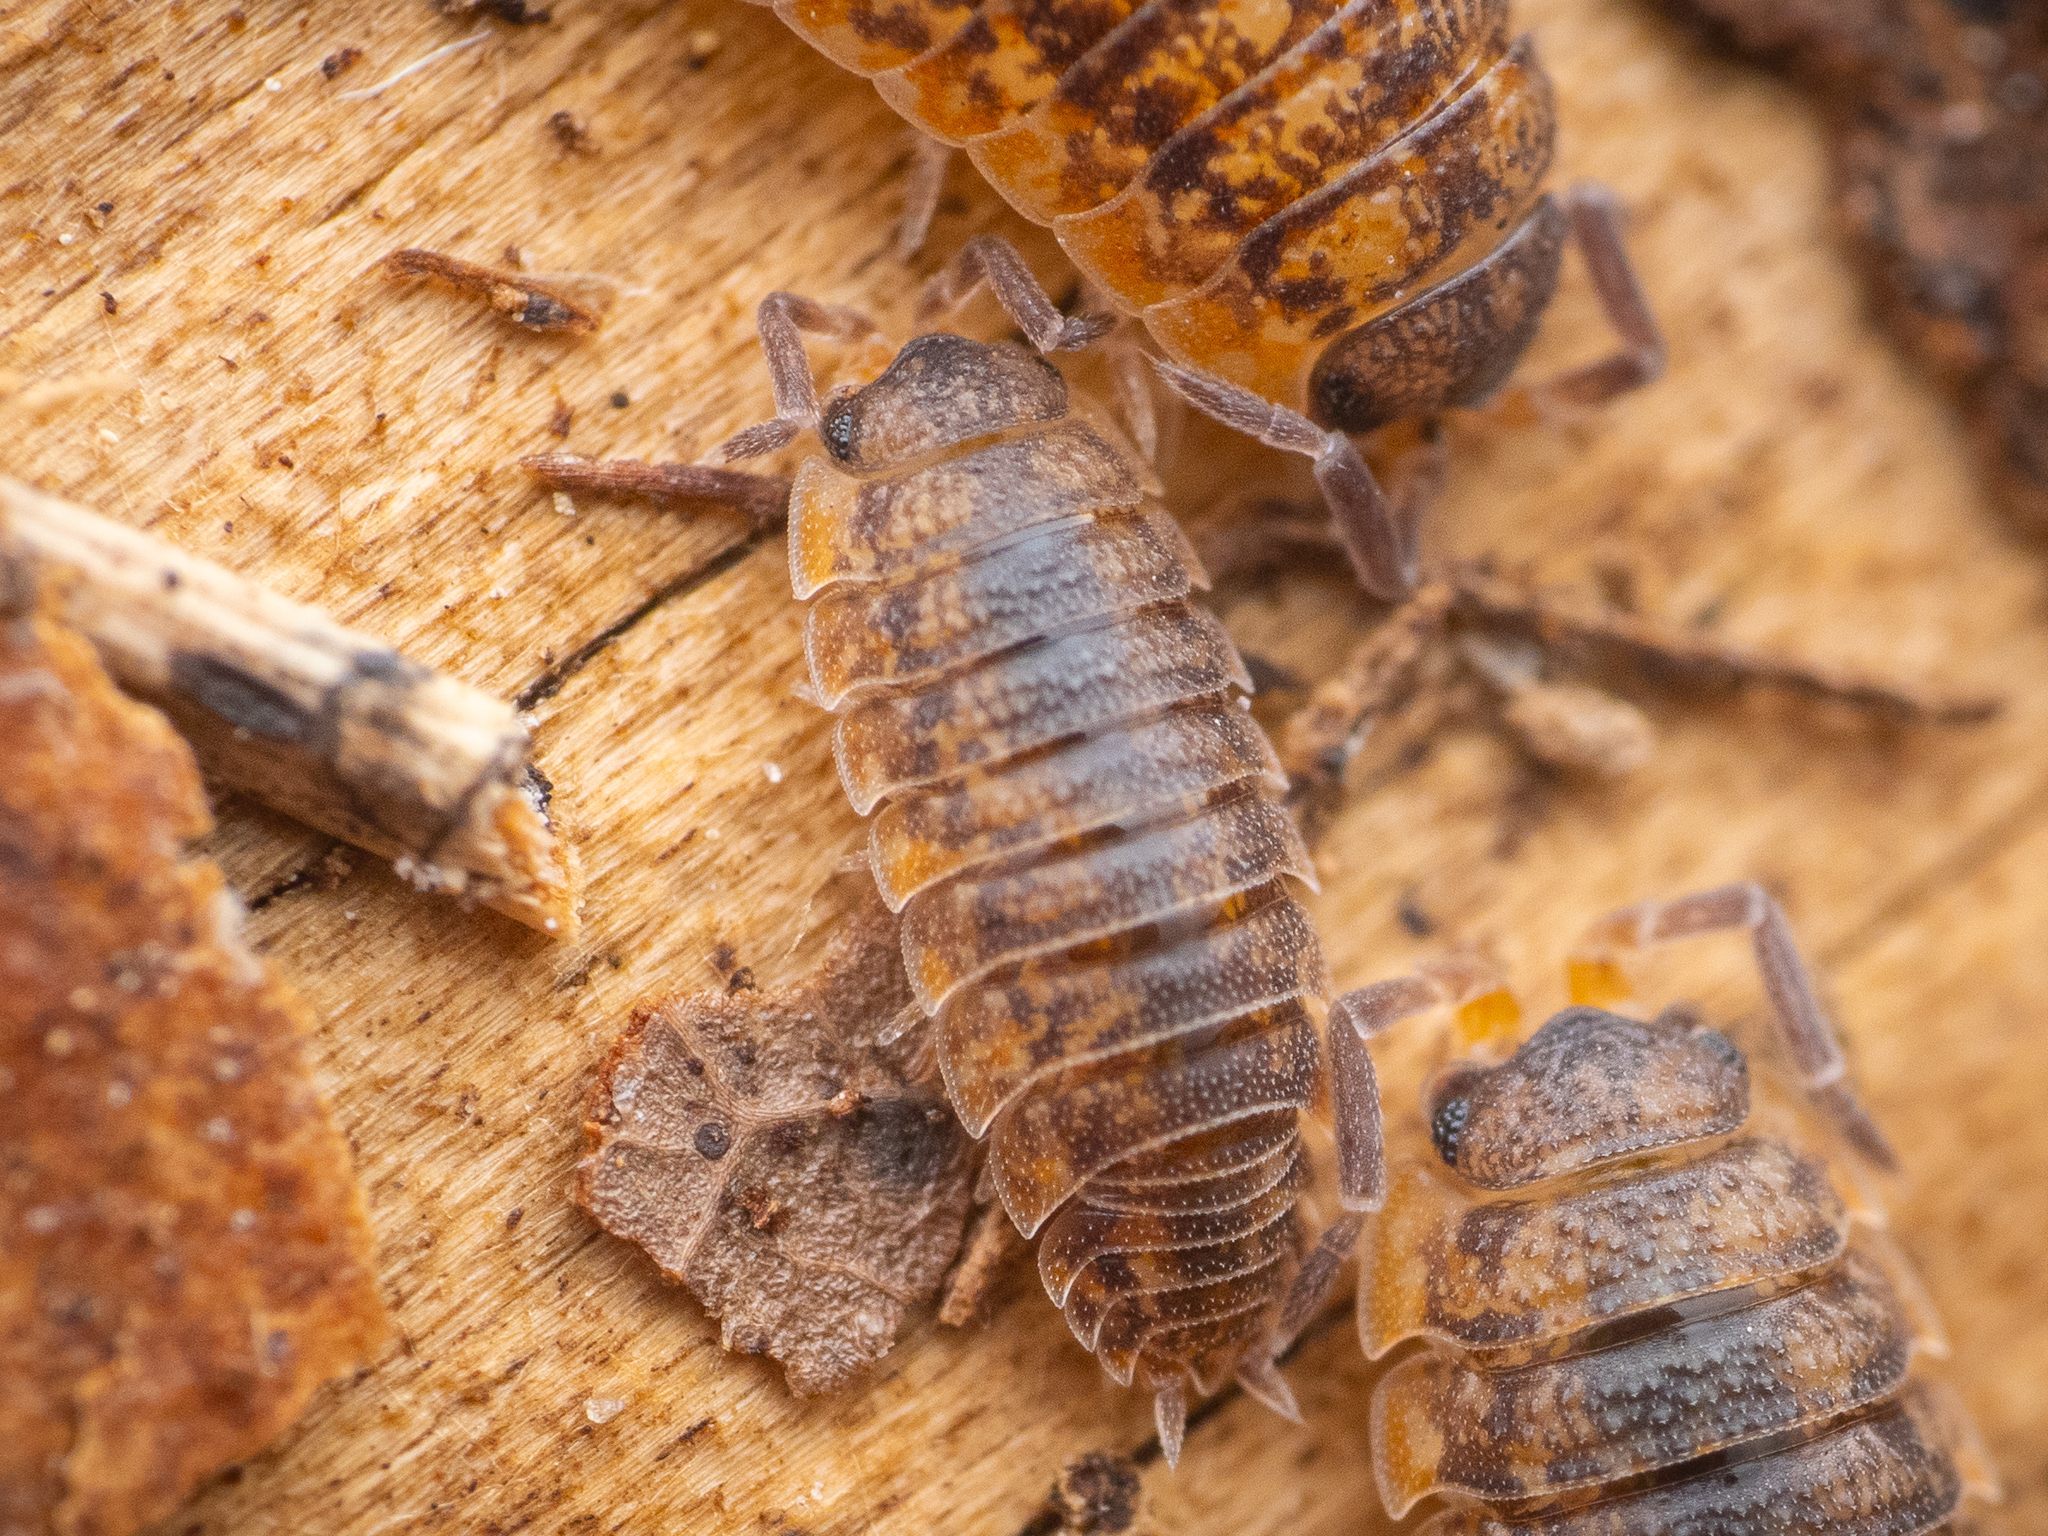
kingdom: Animalia
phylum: Arthropoda
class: Malacostraca
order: Isopoda
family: Porcellionidae
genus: Porcellio
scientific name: Porcellio scaber
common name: Common rough woodlouse
